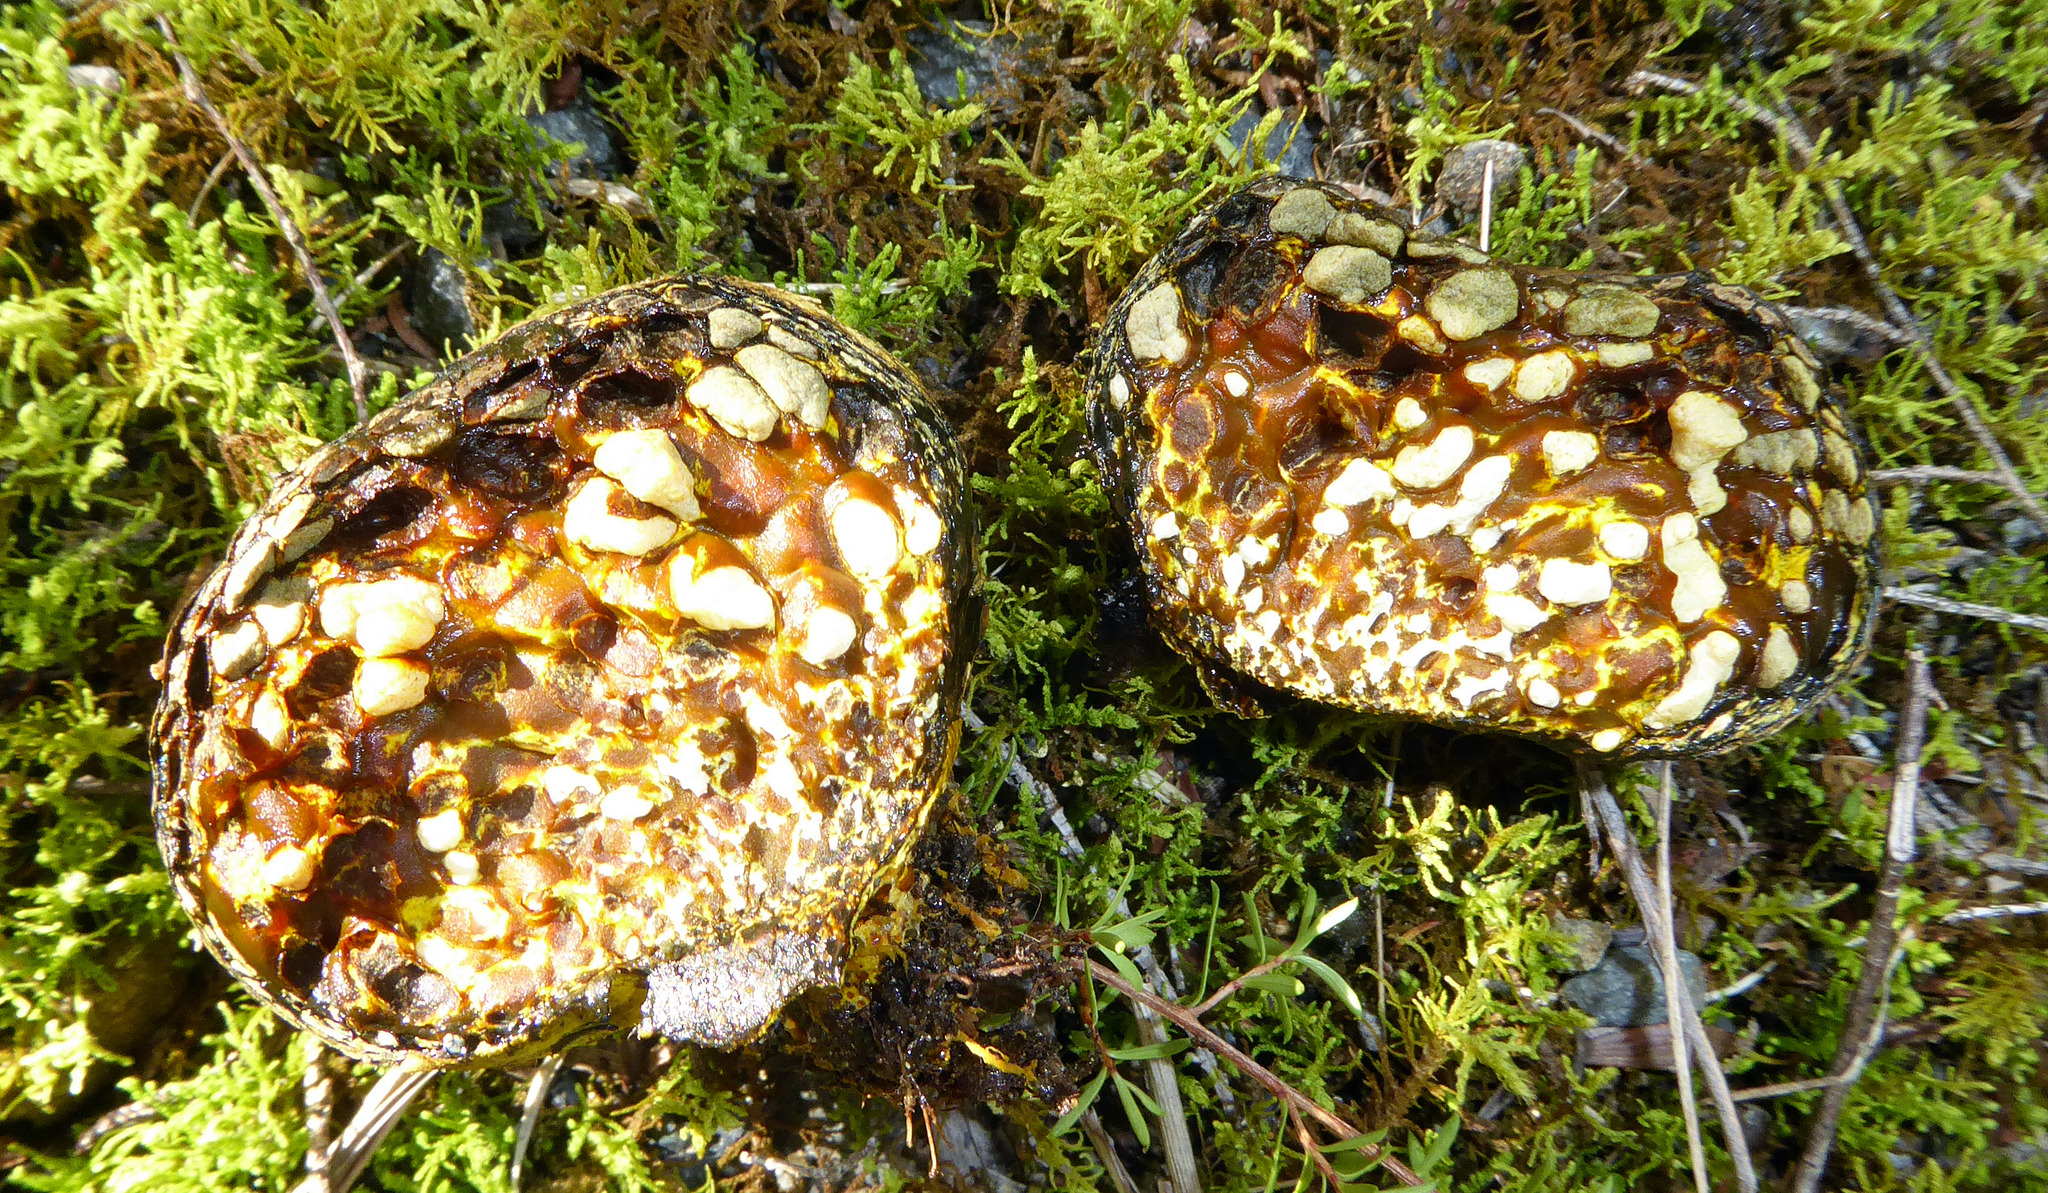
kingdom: Fungi
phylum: Basidiomycota
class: Agaricomycetes
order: Boletales
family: Sclerodermataceae
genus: Pisolithus
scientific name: Pisolithus thermaeus
